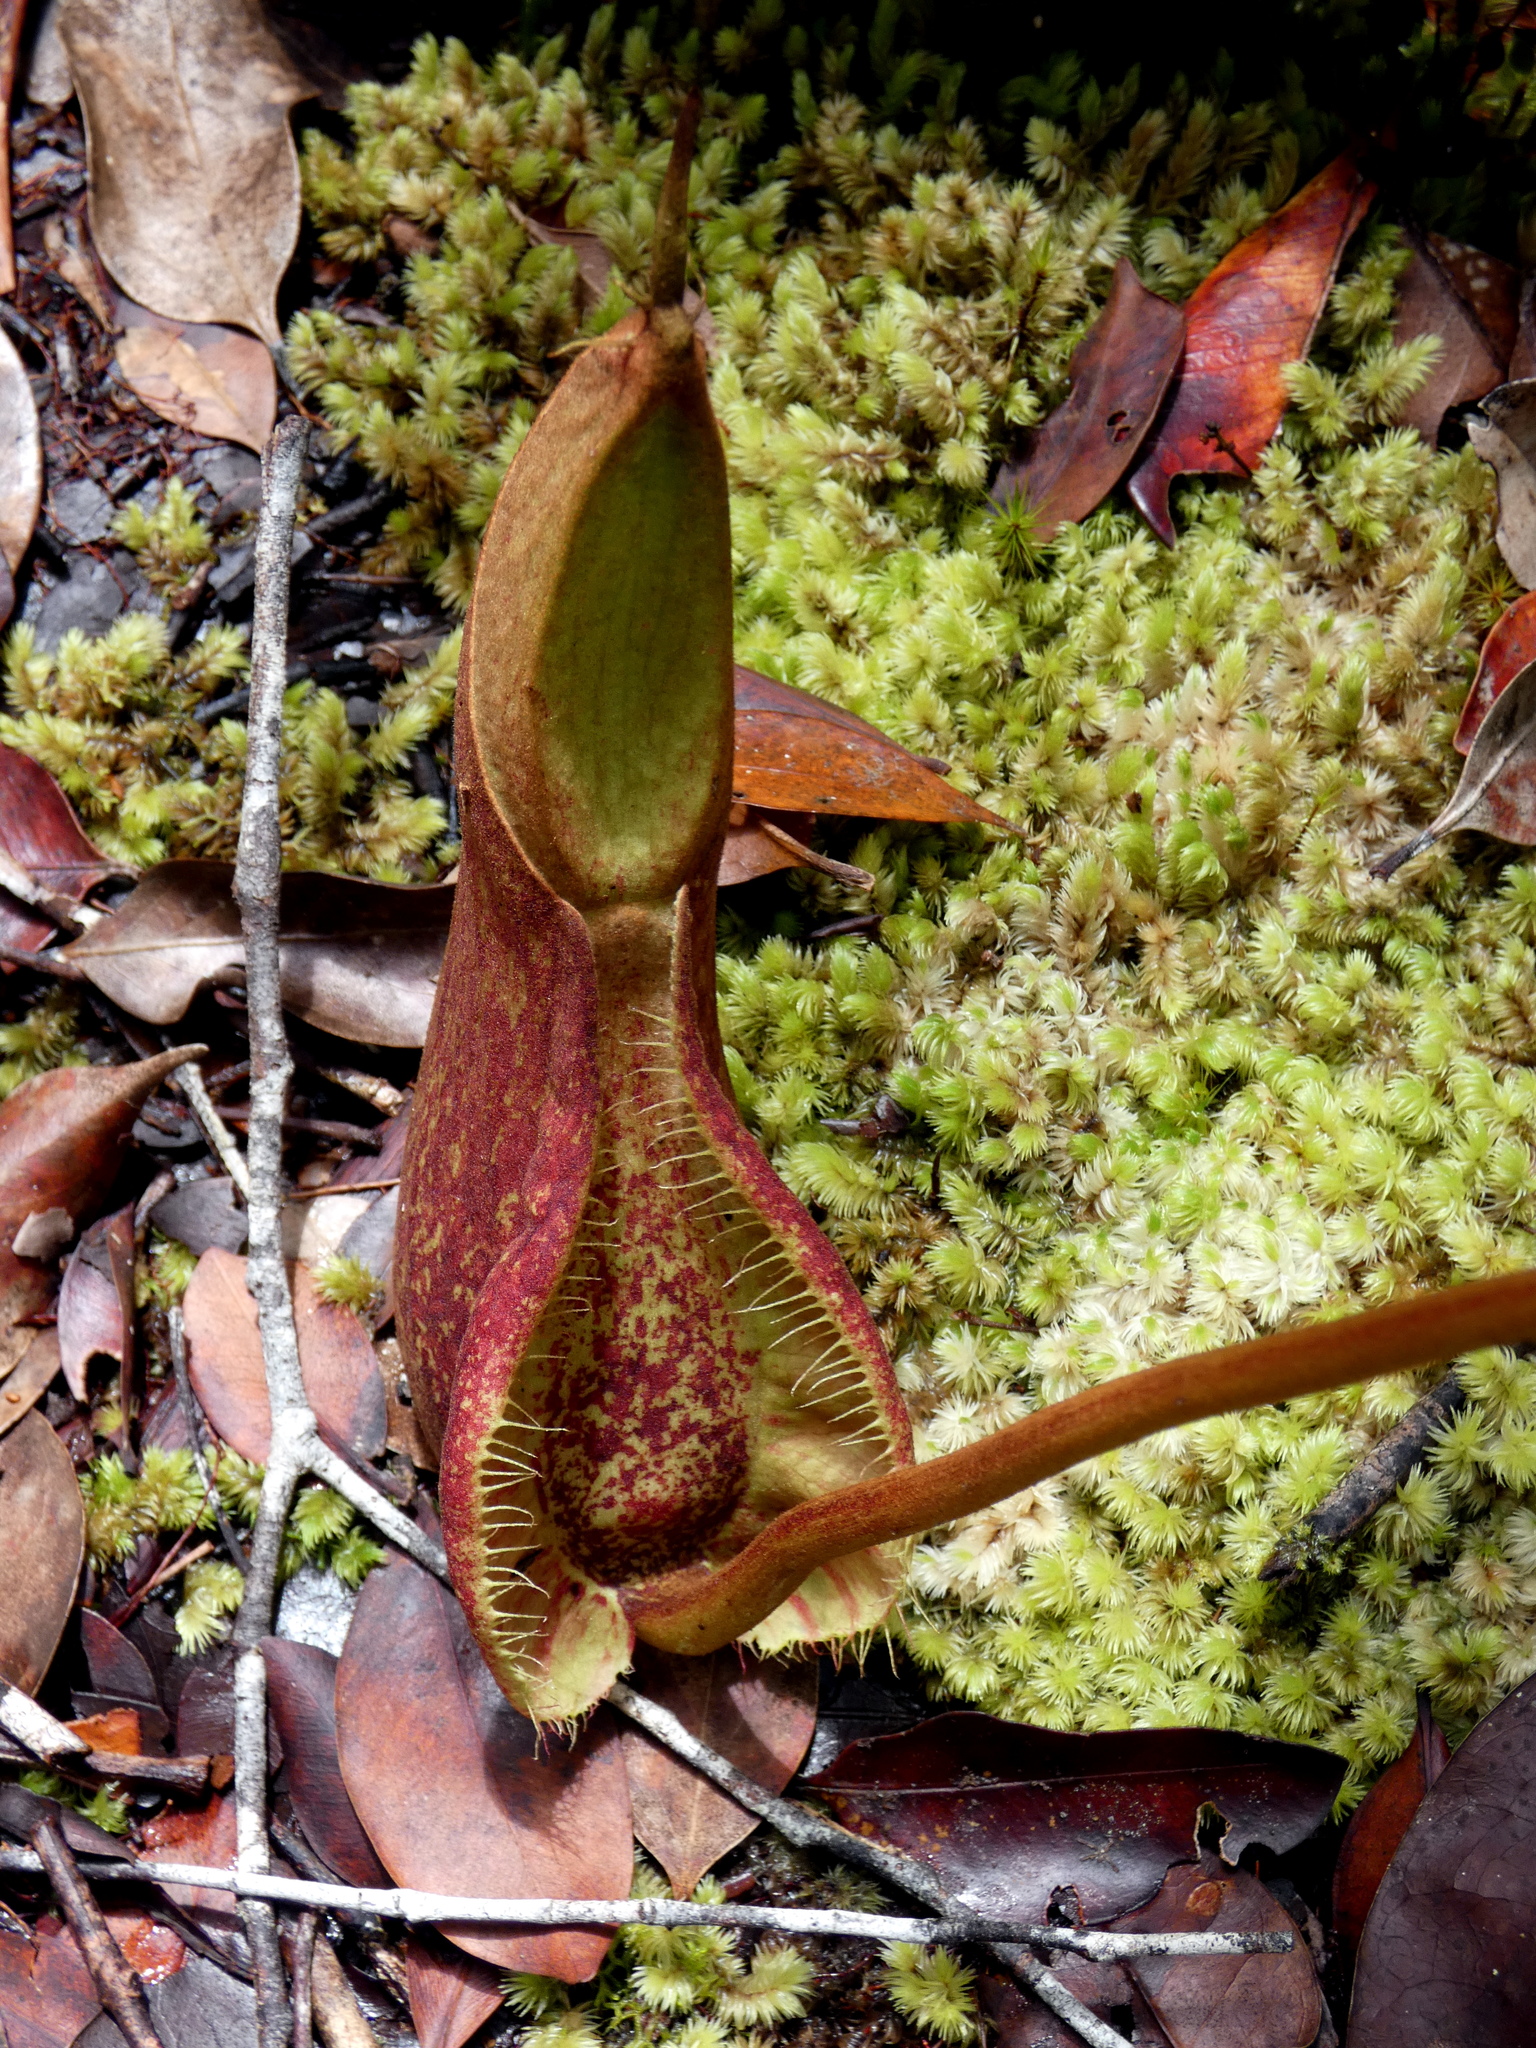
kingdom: Plantae
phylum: Tracheophyta
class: Magnoliopsida
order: Caryophyllales
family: Nepenthaceae
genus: Nepenthes
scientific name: Nepenthes rafflesiana
